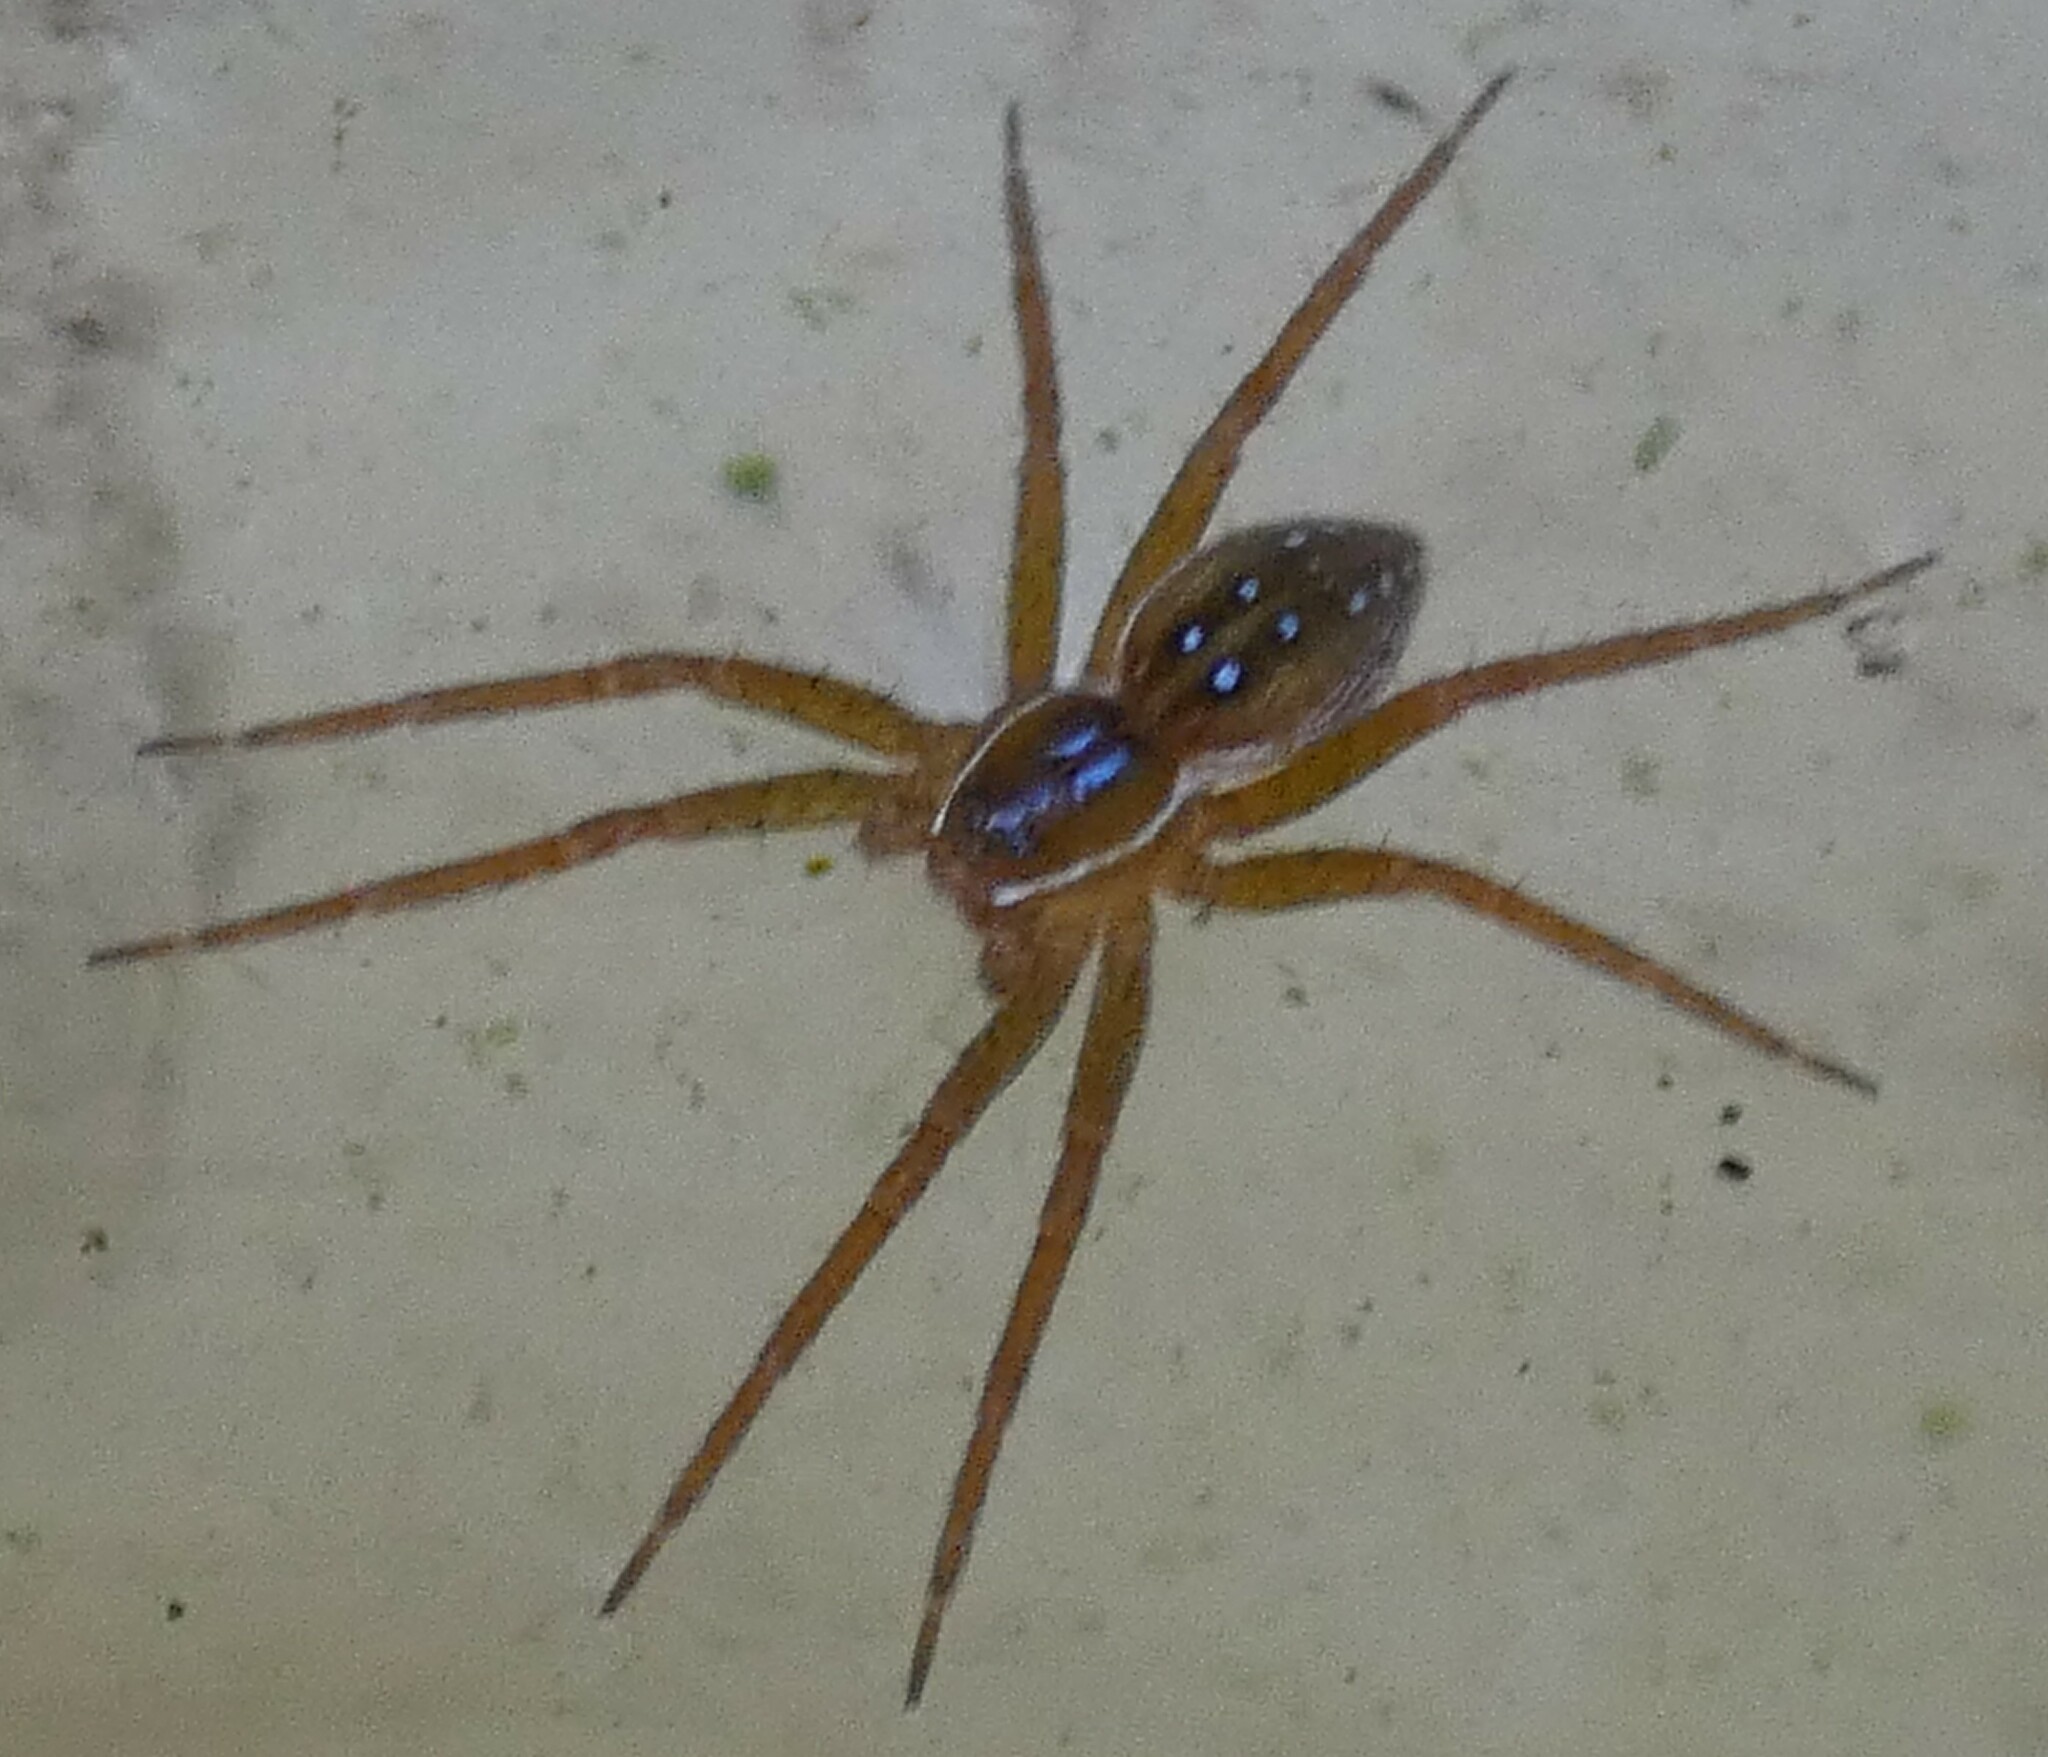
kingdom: Animalia
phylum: Arthropoda
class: Arachnida
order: Araneae
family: Pisauridae
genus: Dolomedes
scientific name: Dolomedes triton
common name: Six-spotted fishing spider
